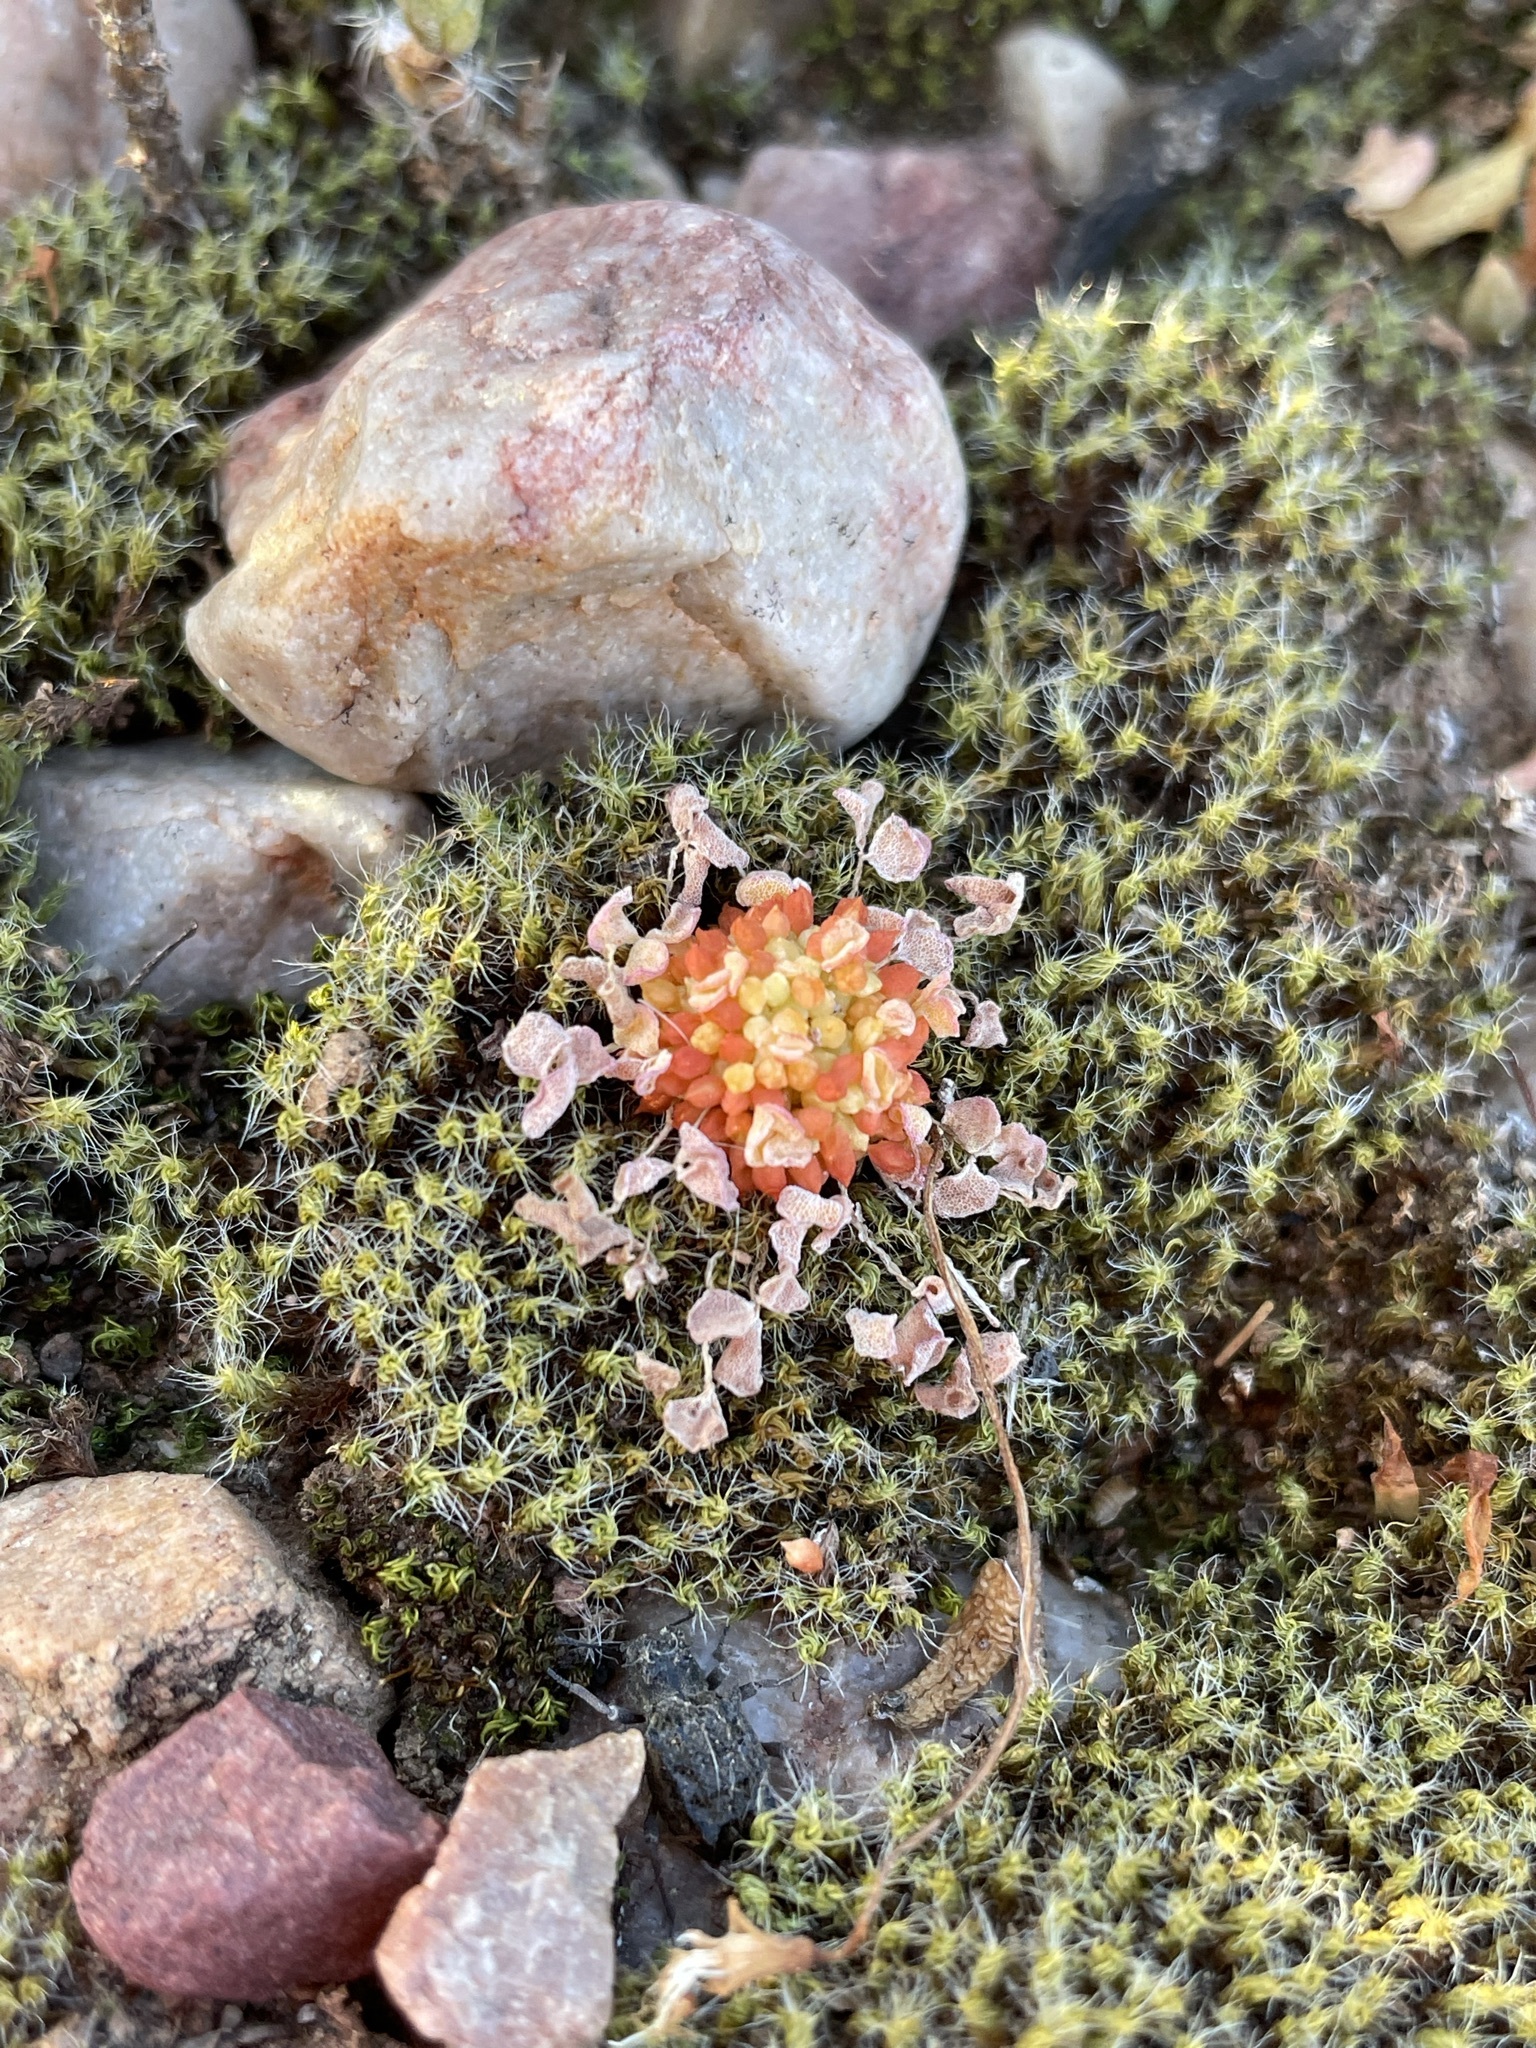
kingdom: Plantae
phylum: Tracheophyta
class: Magnoliopsida
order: Oxalidales
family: Oxalidaceae
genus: Oxalis
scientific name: Oxalis pocockiae
